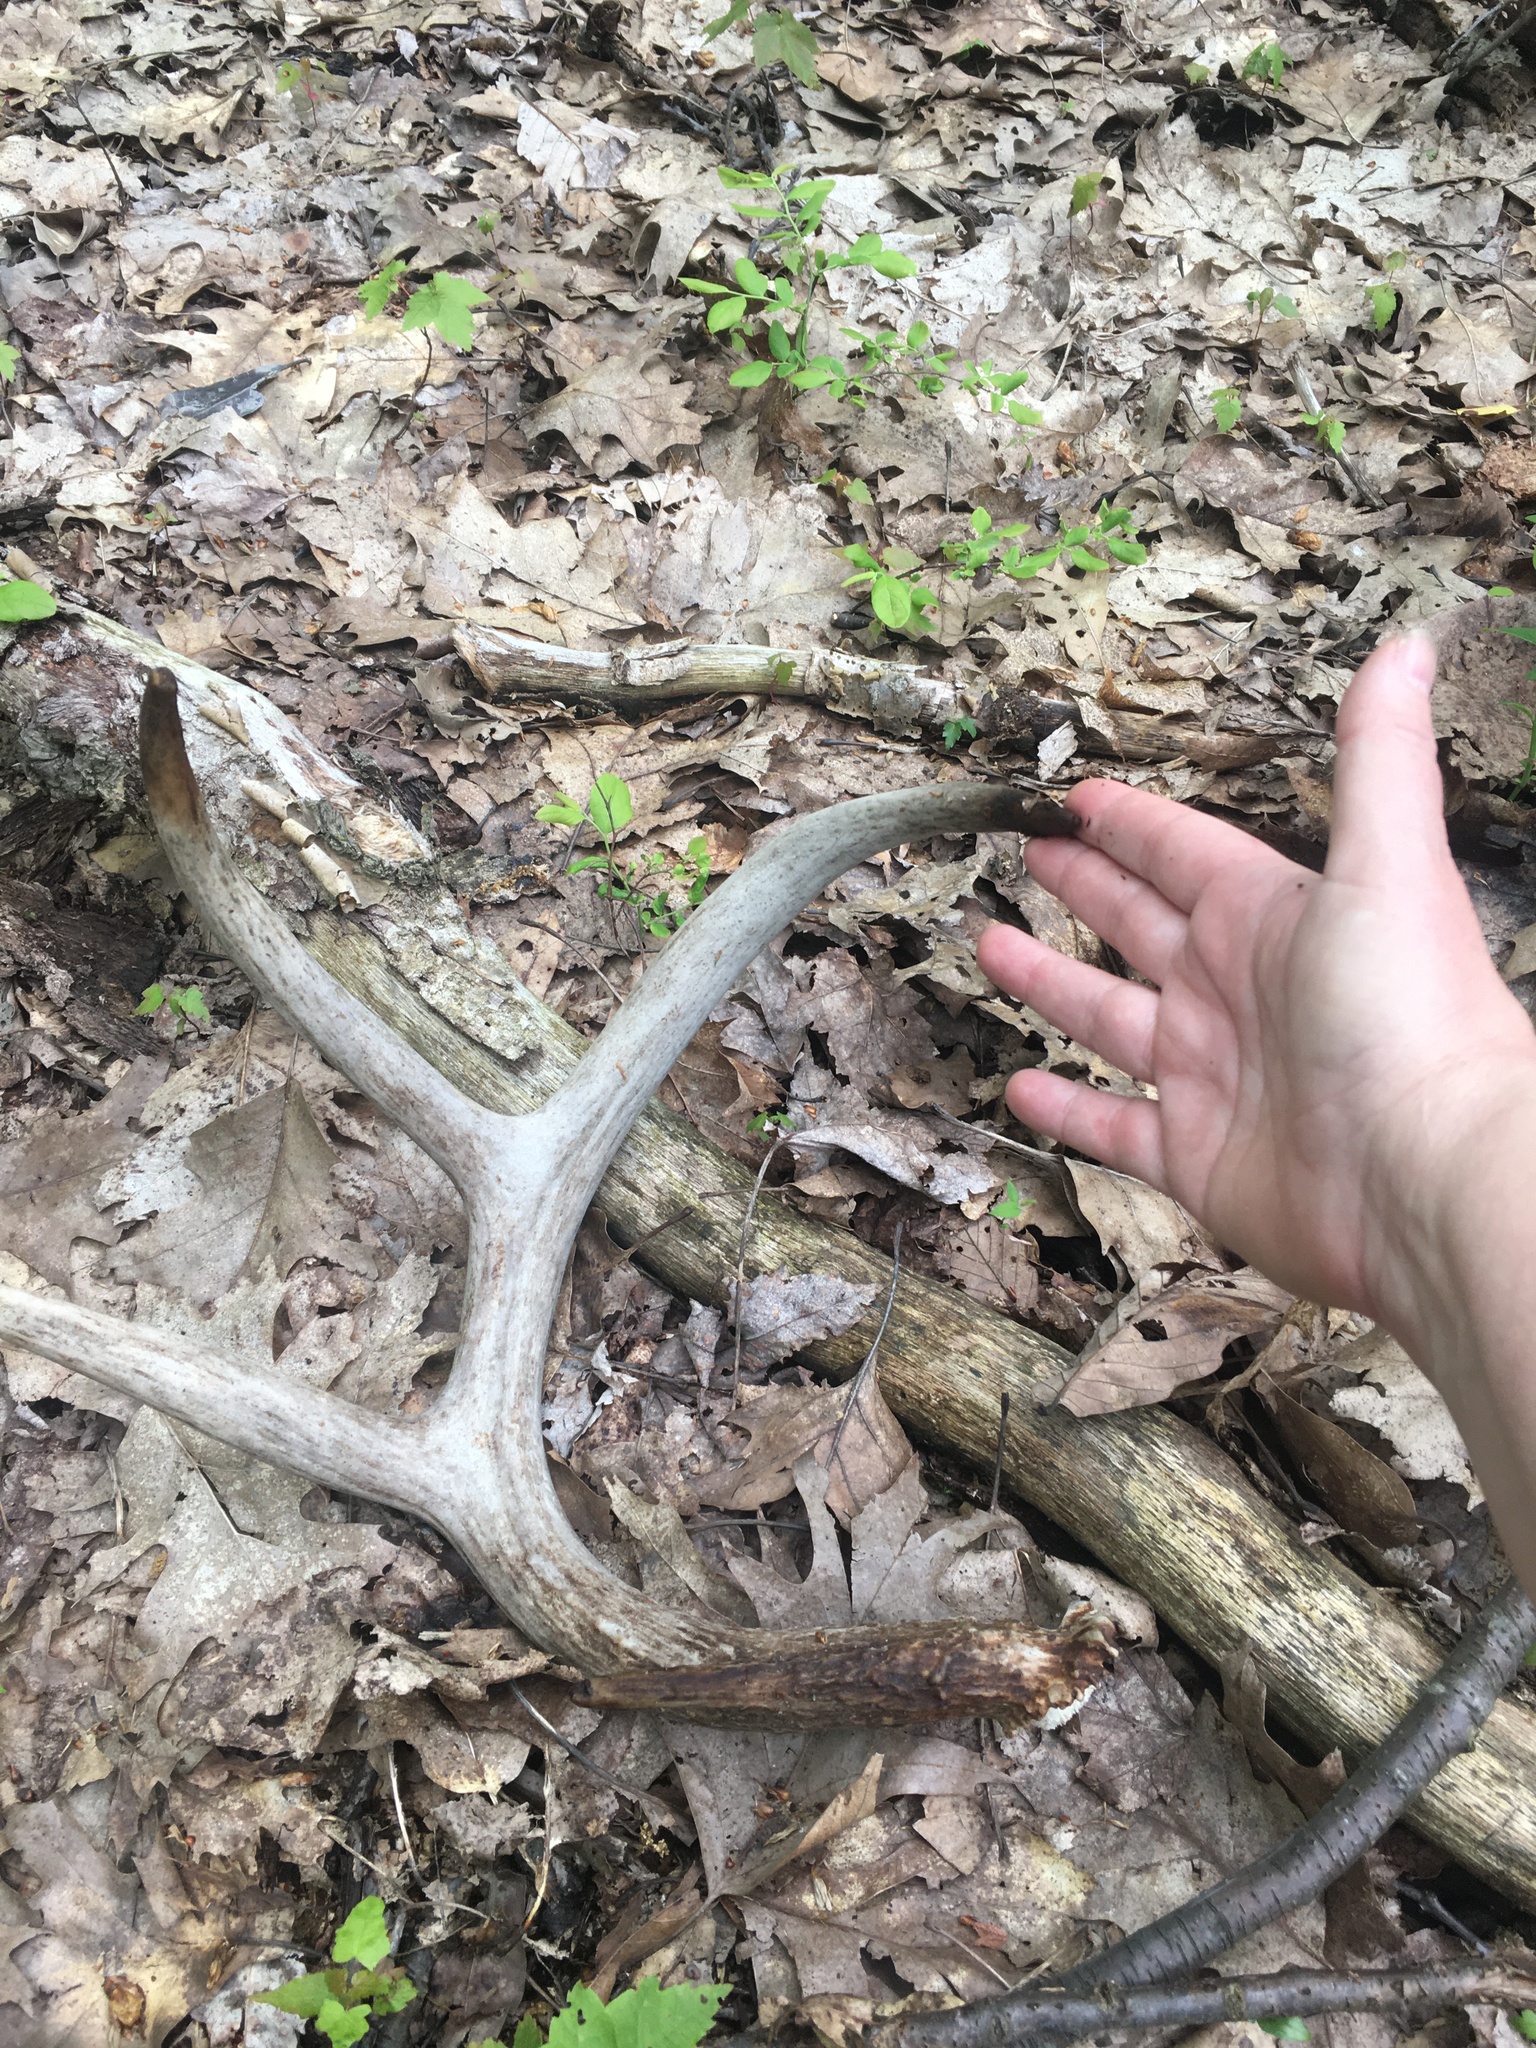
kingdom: Animalia
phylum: Chordata
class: Mammalia
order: Artiodactyla
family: Cervidae
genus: Odocoileus
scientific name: Odocoileus virginianus
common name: White-tailed deer
